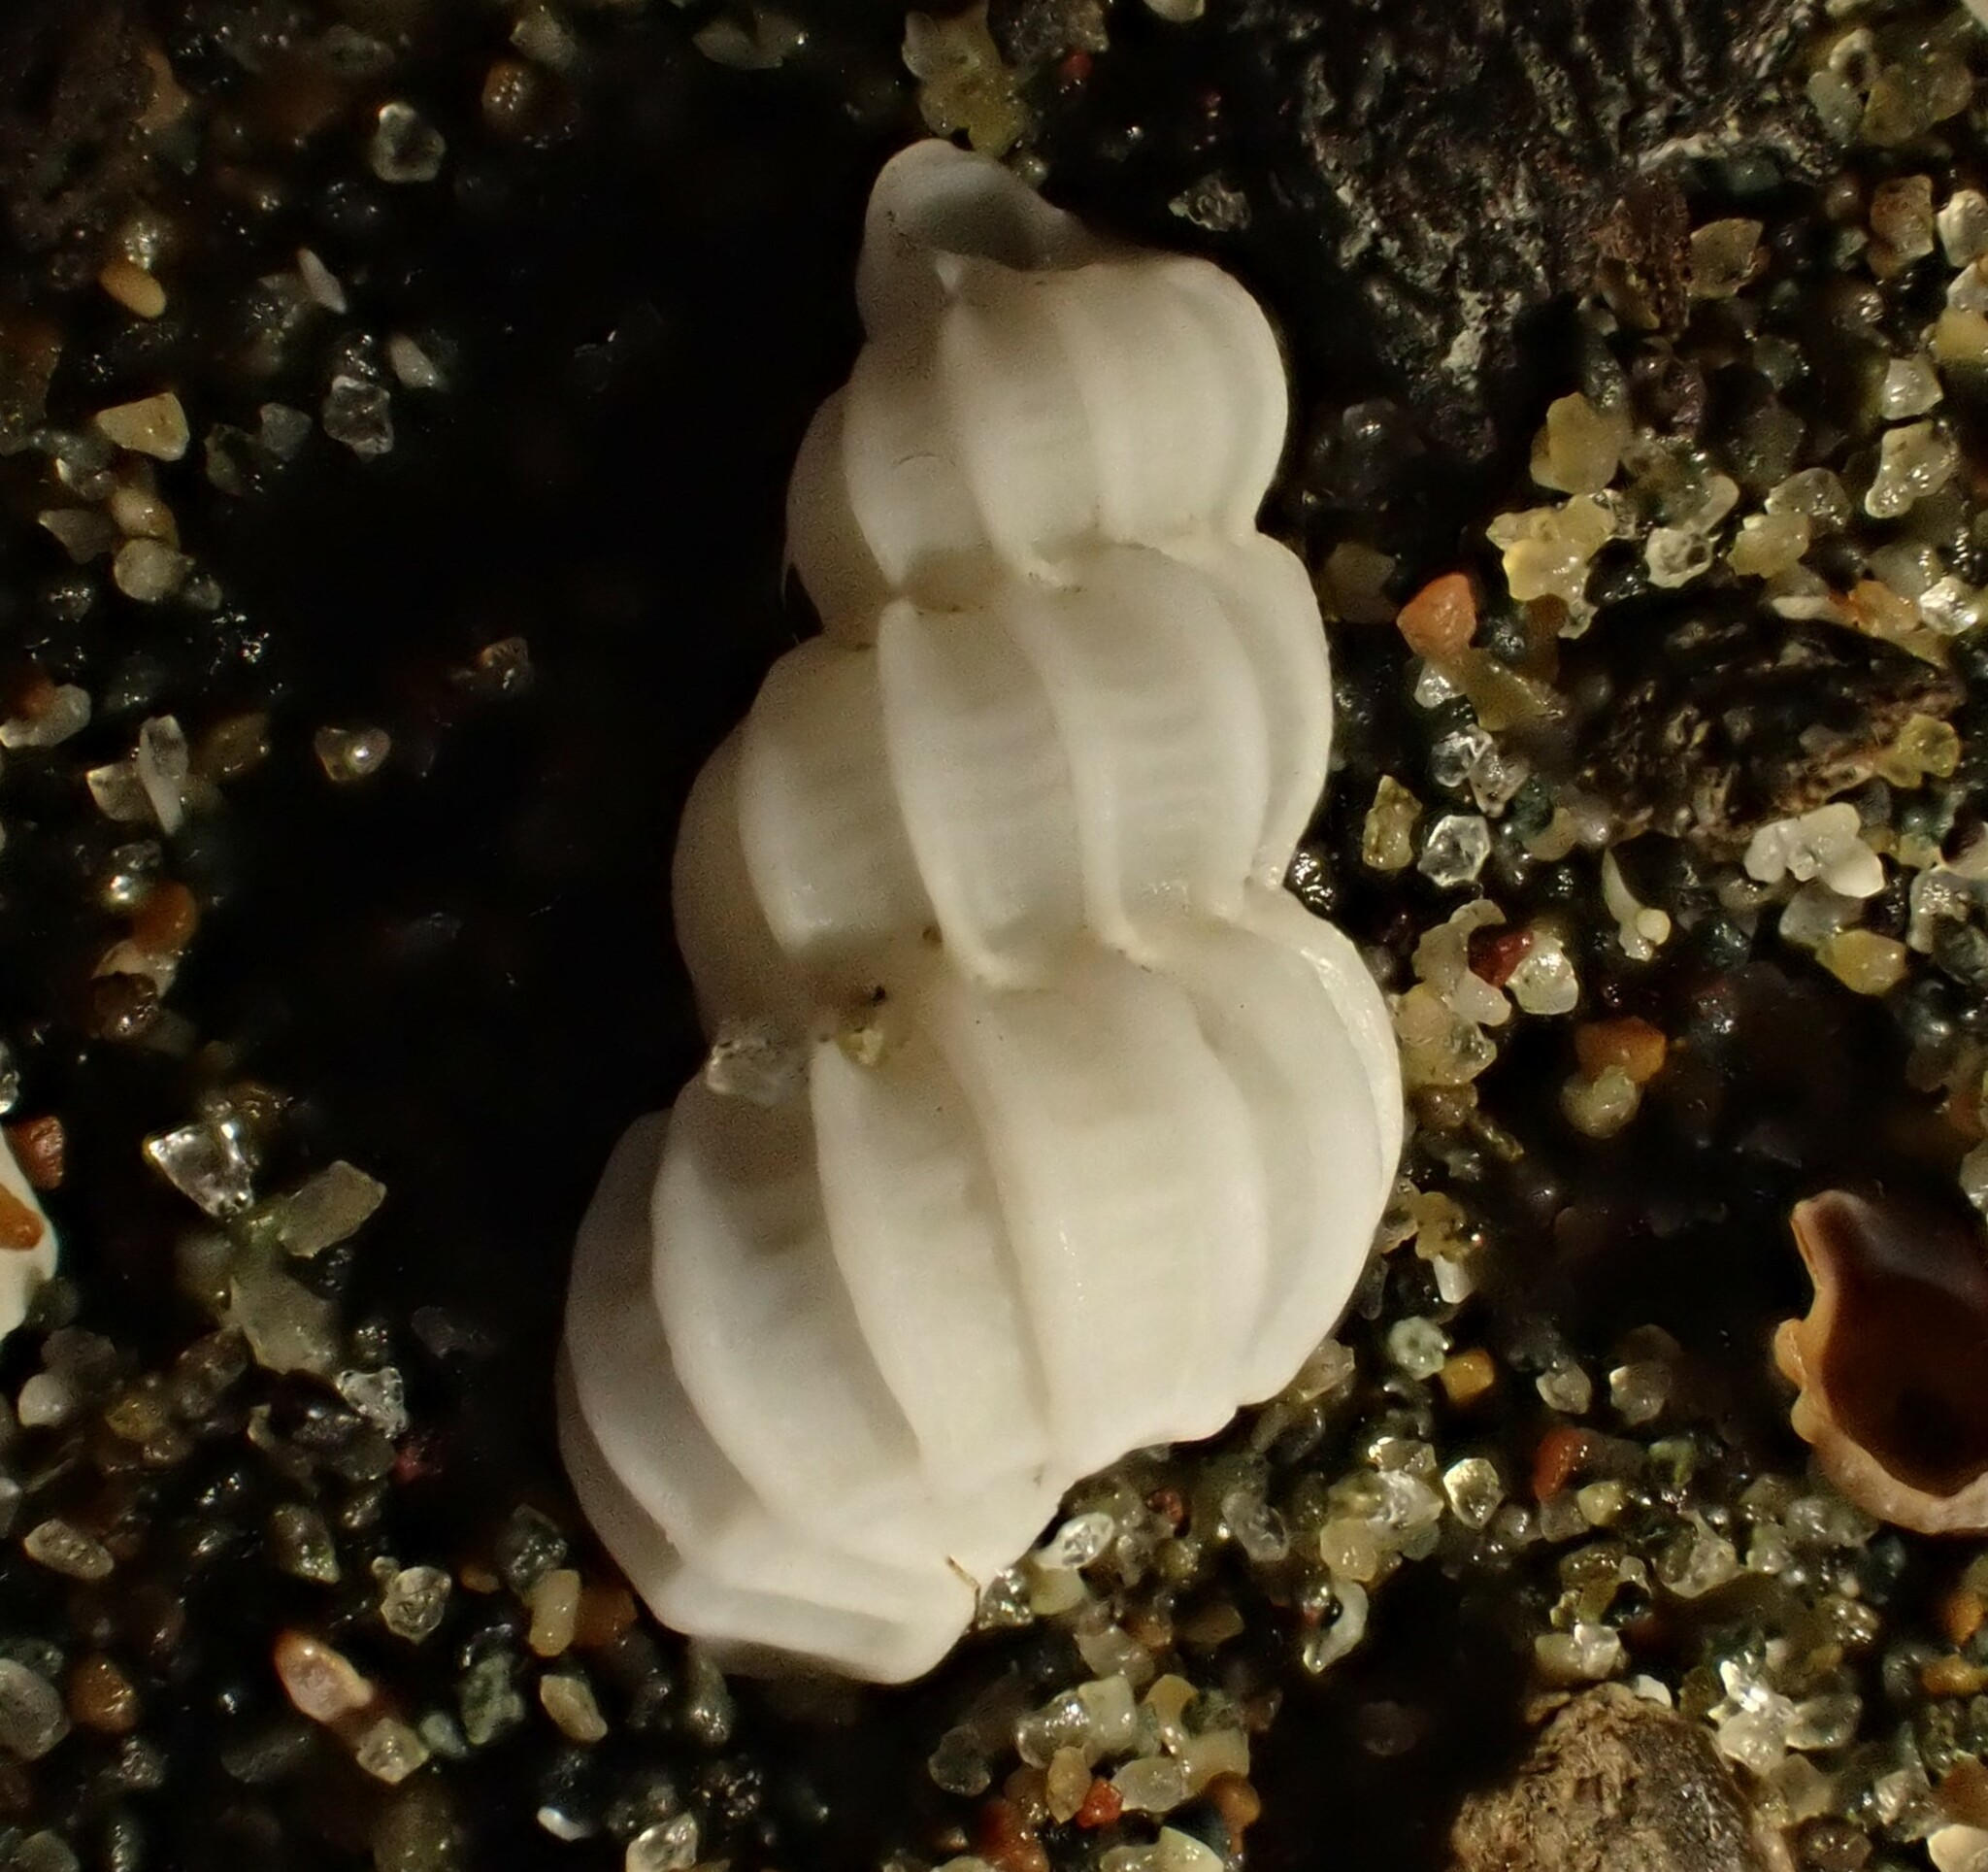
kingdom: Animalia
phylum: Mollusca
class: Gastropoda
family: Epitoniidae
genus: Cirsotrema
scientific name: Cirsotrema zelebori
